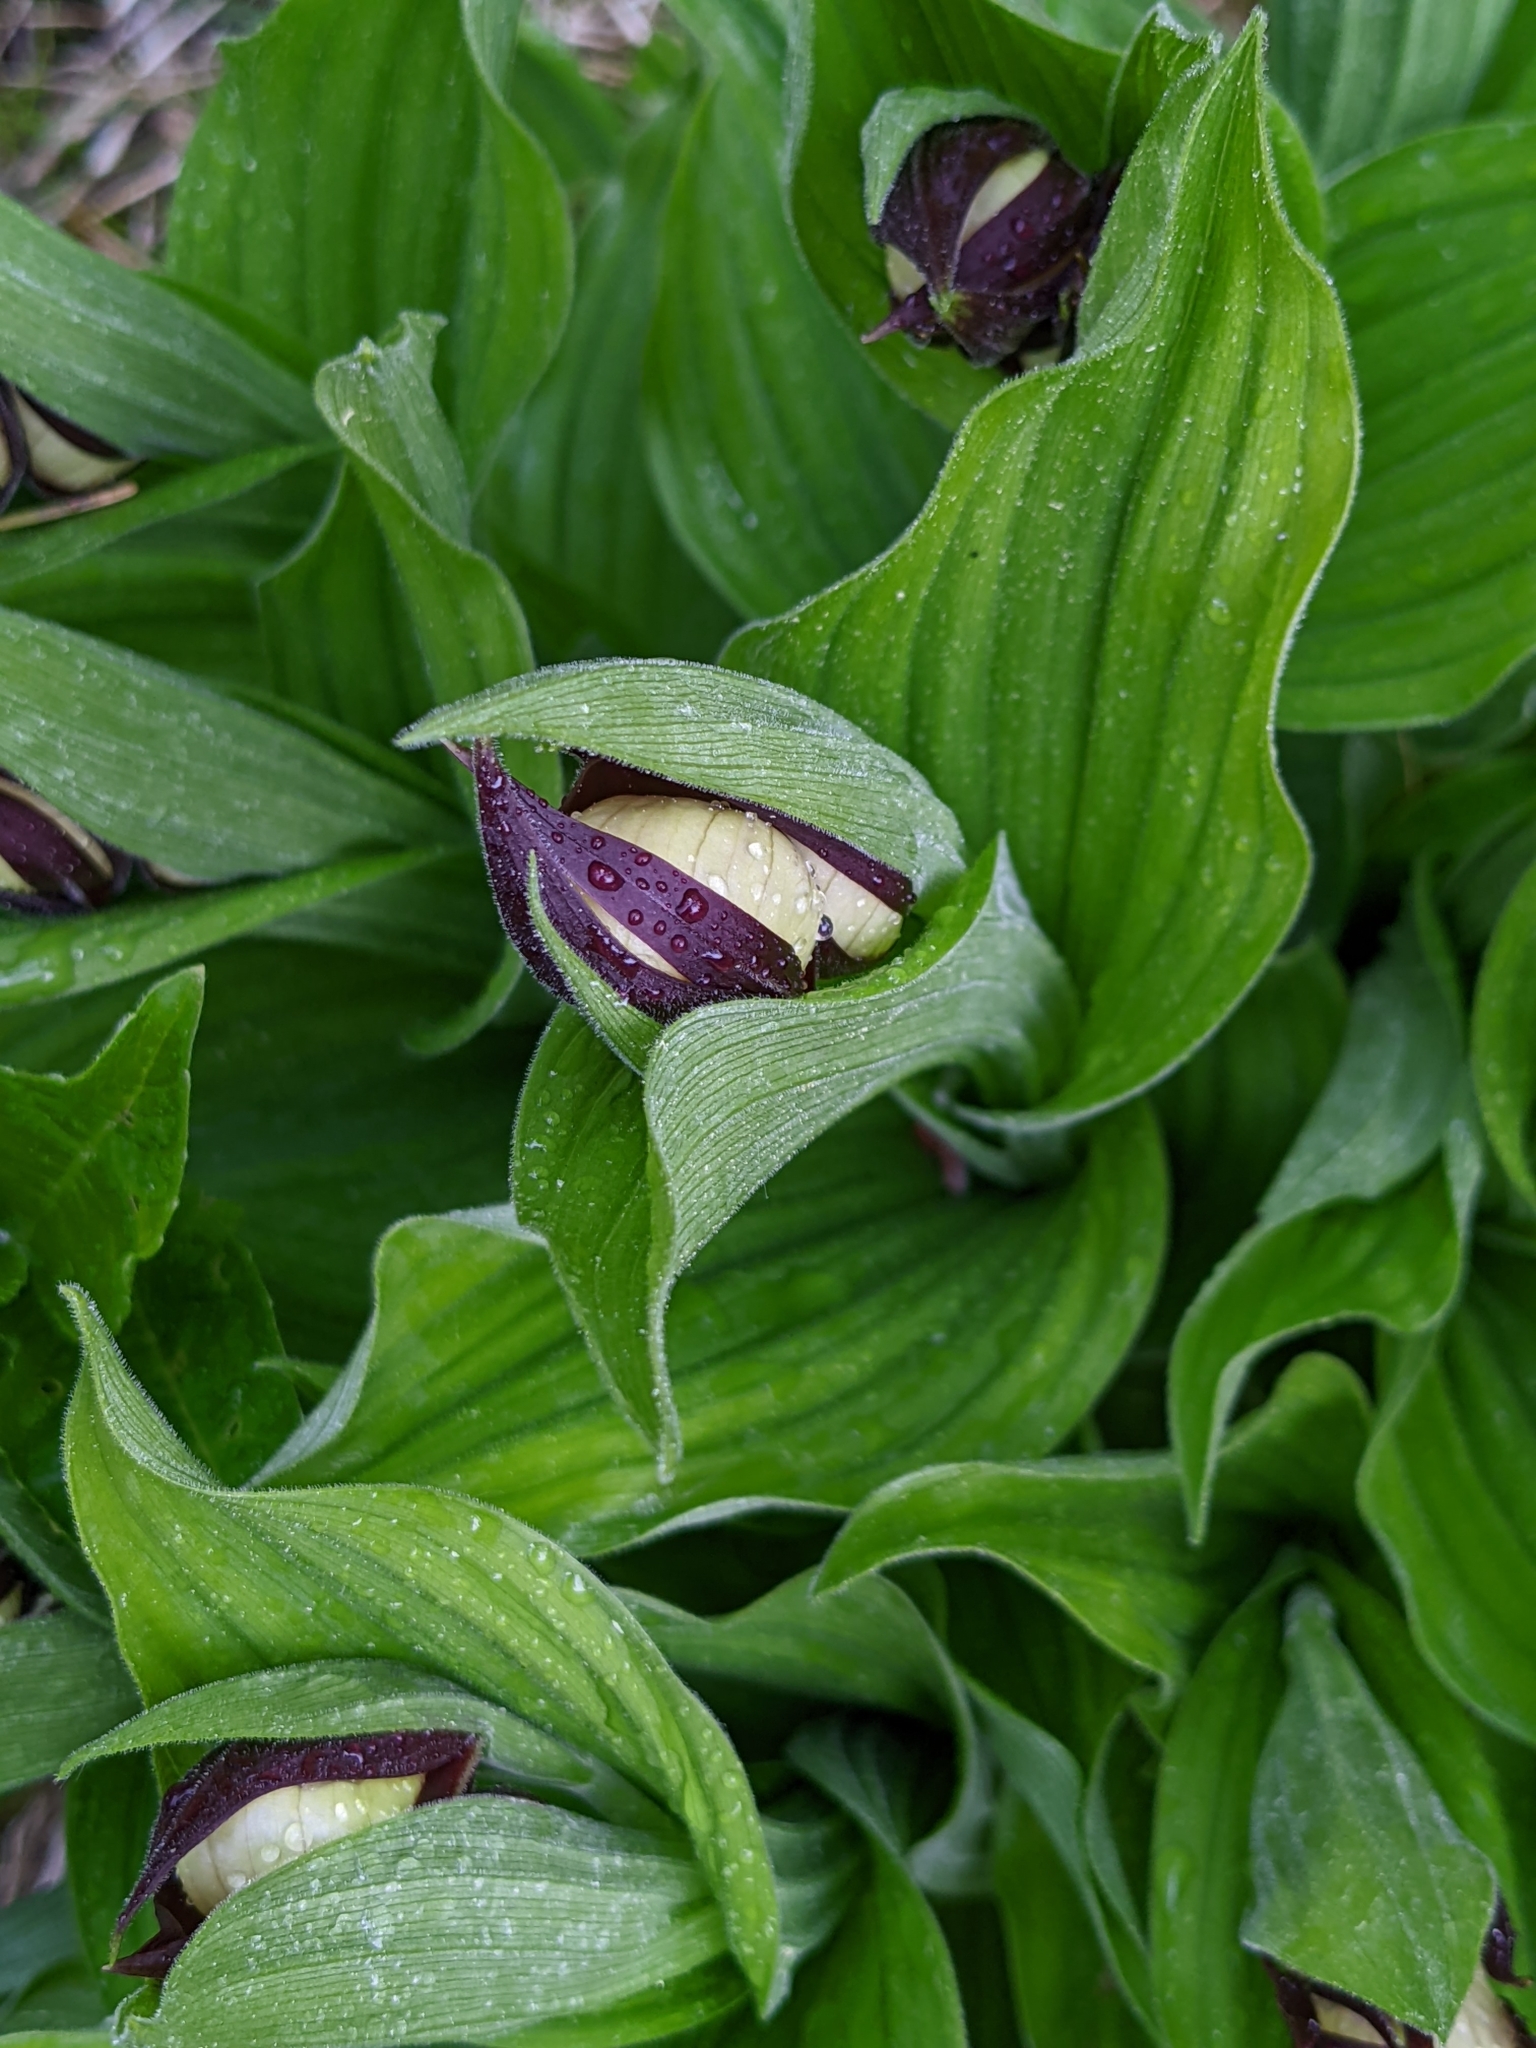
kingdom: Plantae
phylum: Tracheophyta
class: Liliopsida
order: Asparagales
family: Orchidaceae
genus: Cypripedium
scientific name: Cypripedium calceolus
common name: Lady's-slipper
